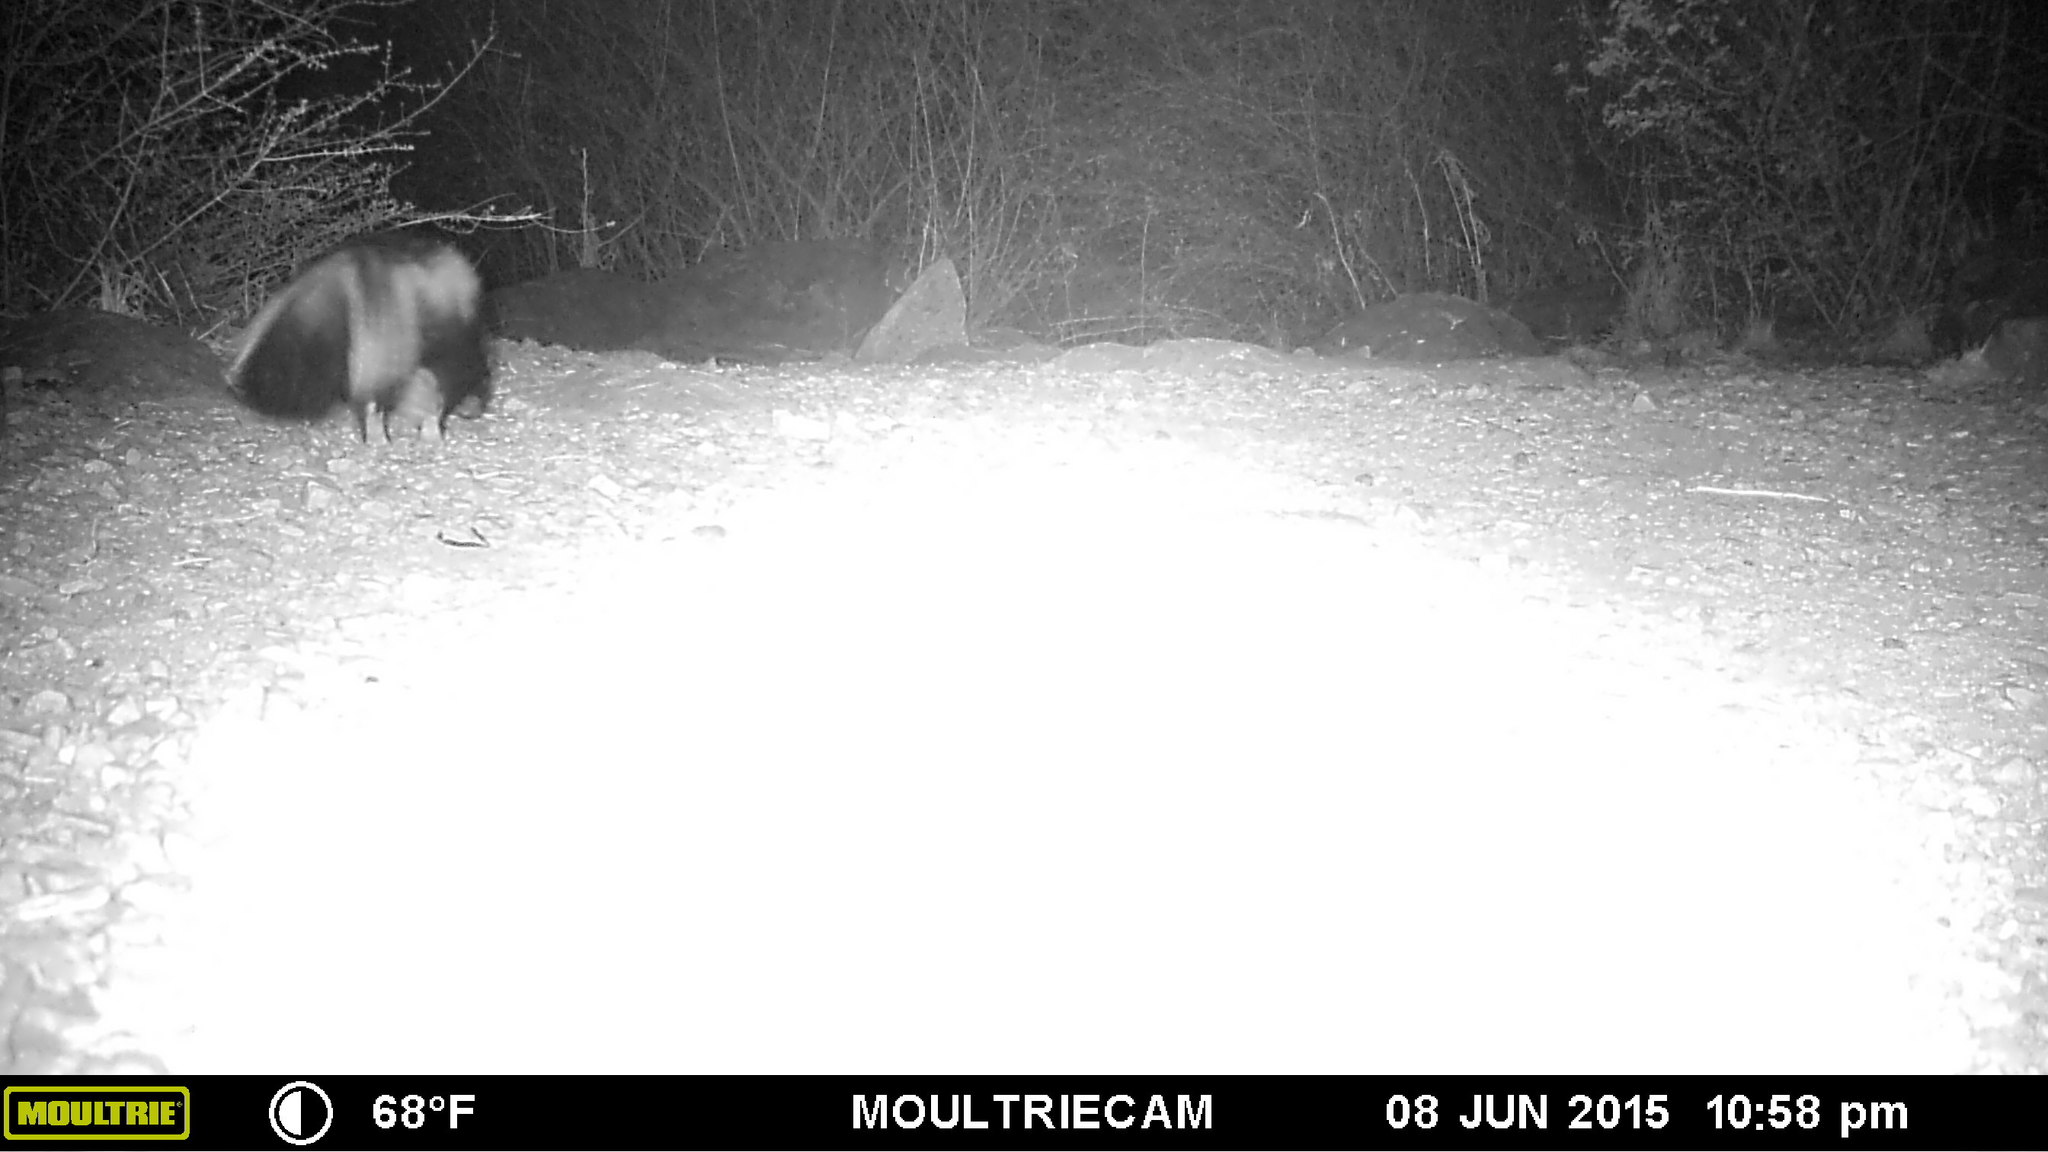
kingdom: Animalia
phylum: Chordata
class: Mammalia
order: Carnivora
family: Mephitidae
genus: Mephitis
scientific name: Mephitis mephitis
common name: Striped skunk
